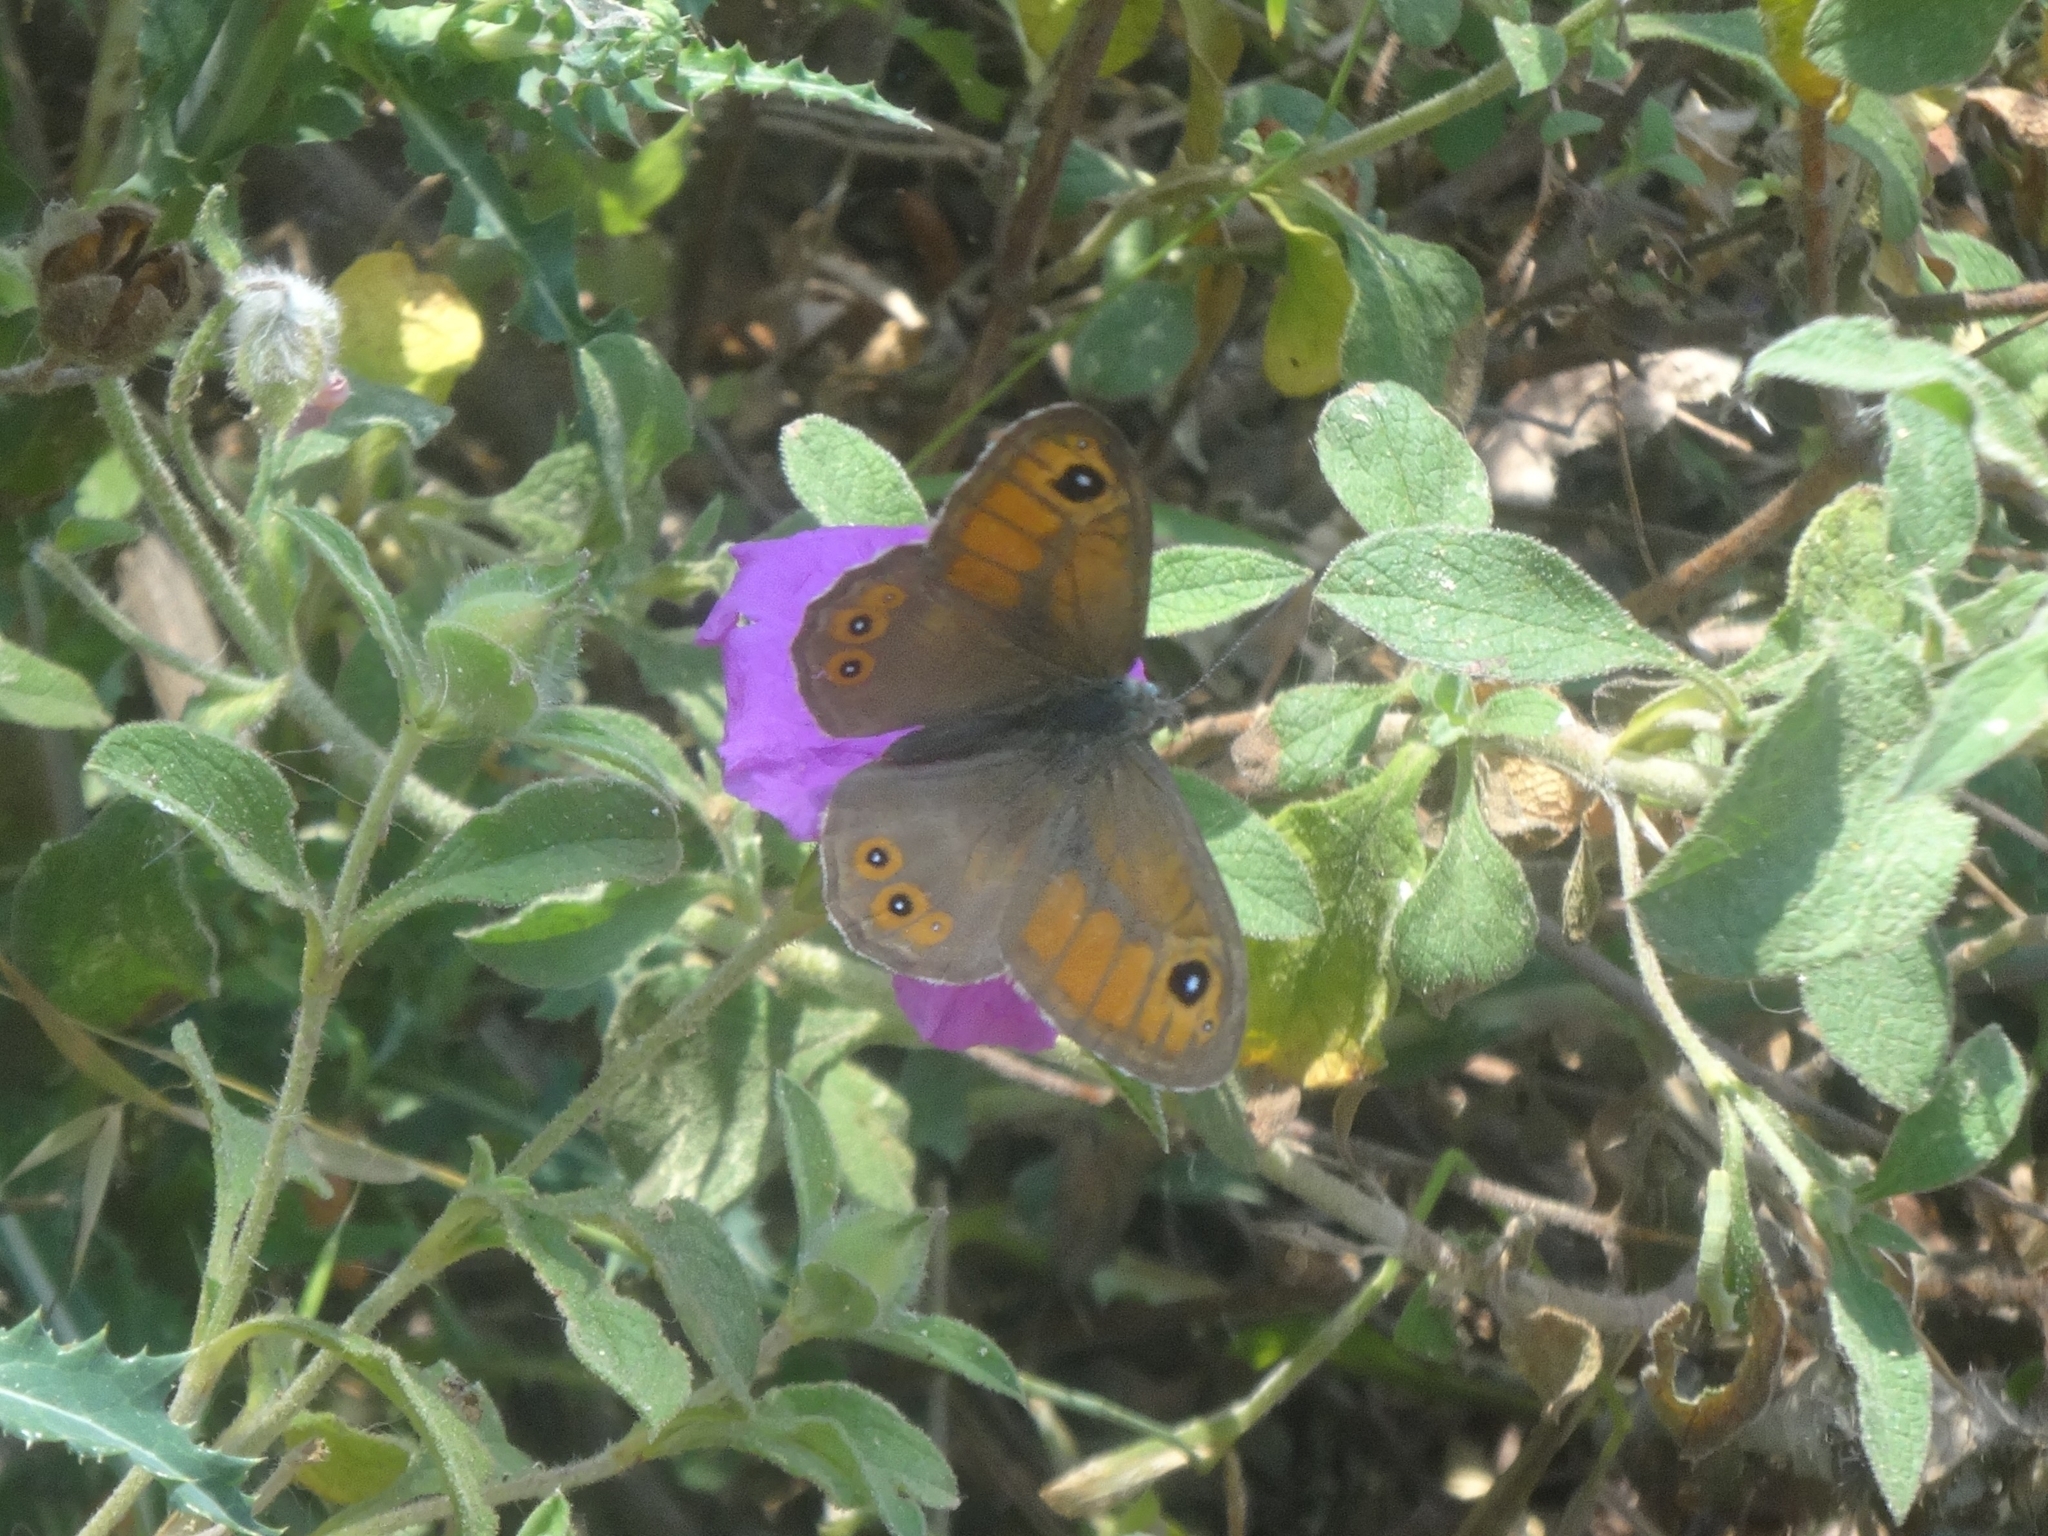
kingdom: Animalia
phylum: Arthropoda
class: Insecta
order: Lepidoptera
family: Nymphalidae
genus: Pararge
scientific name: Pararge Lasiommata maera
